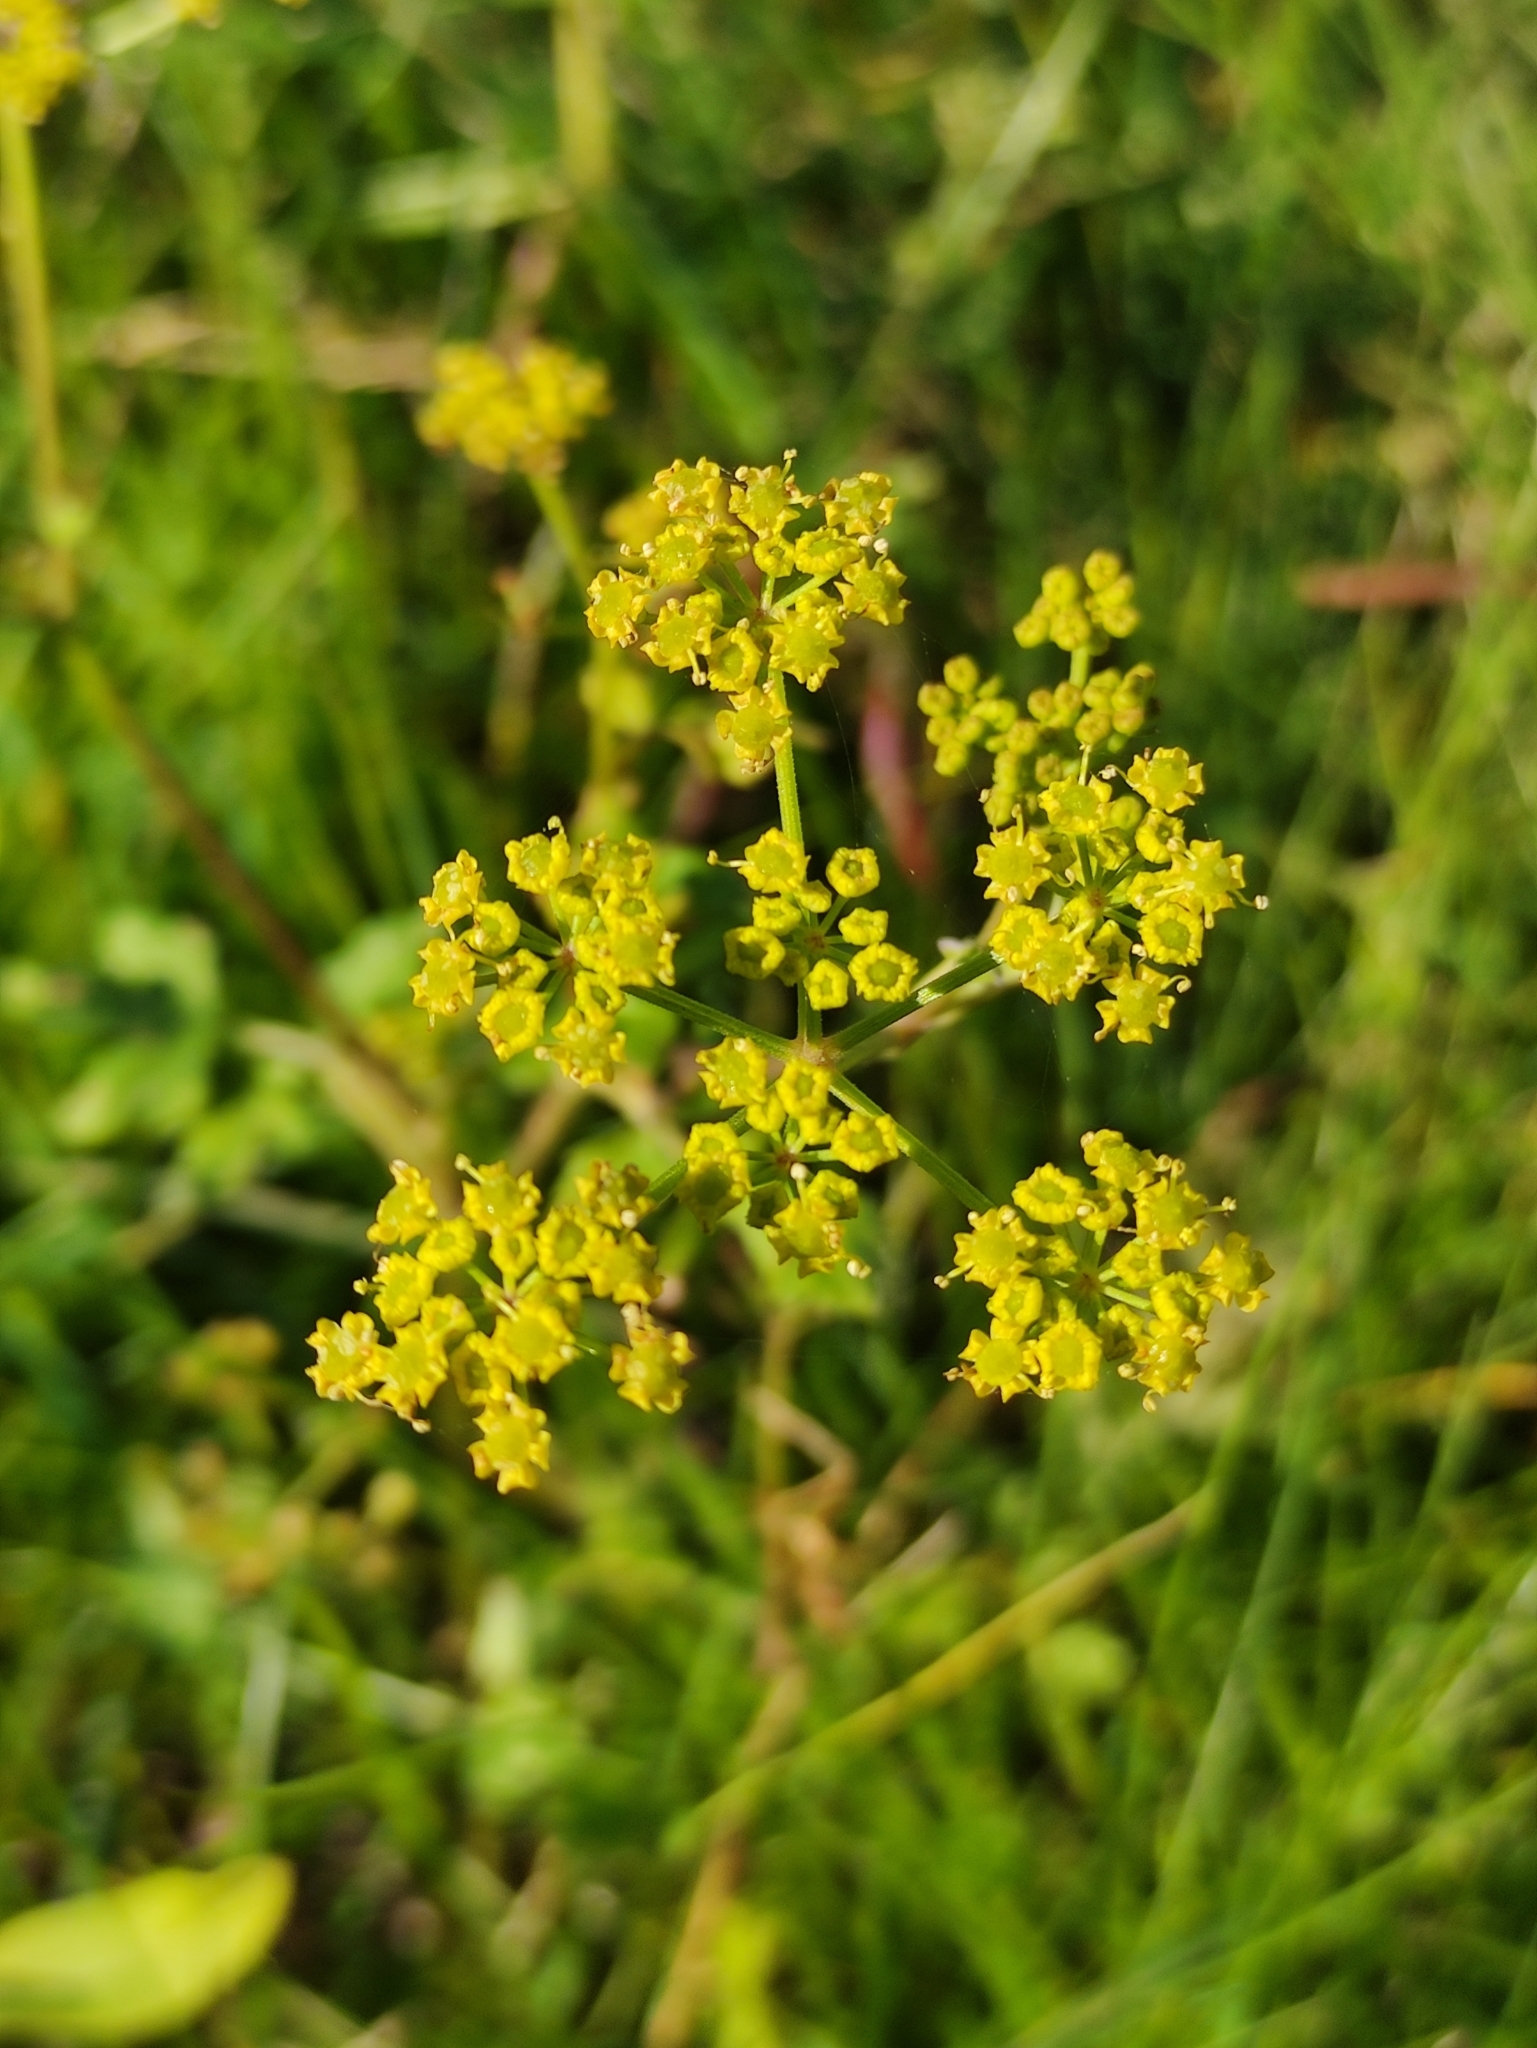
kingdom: Plantae
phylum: Tracheophyta
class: Magnoliopsida
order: Apiales
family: Apiaceae
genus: Pastinaca
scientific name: Pastinaca sativa
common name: Wild parsnip
